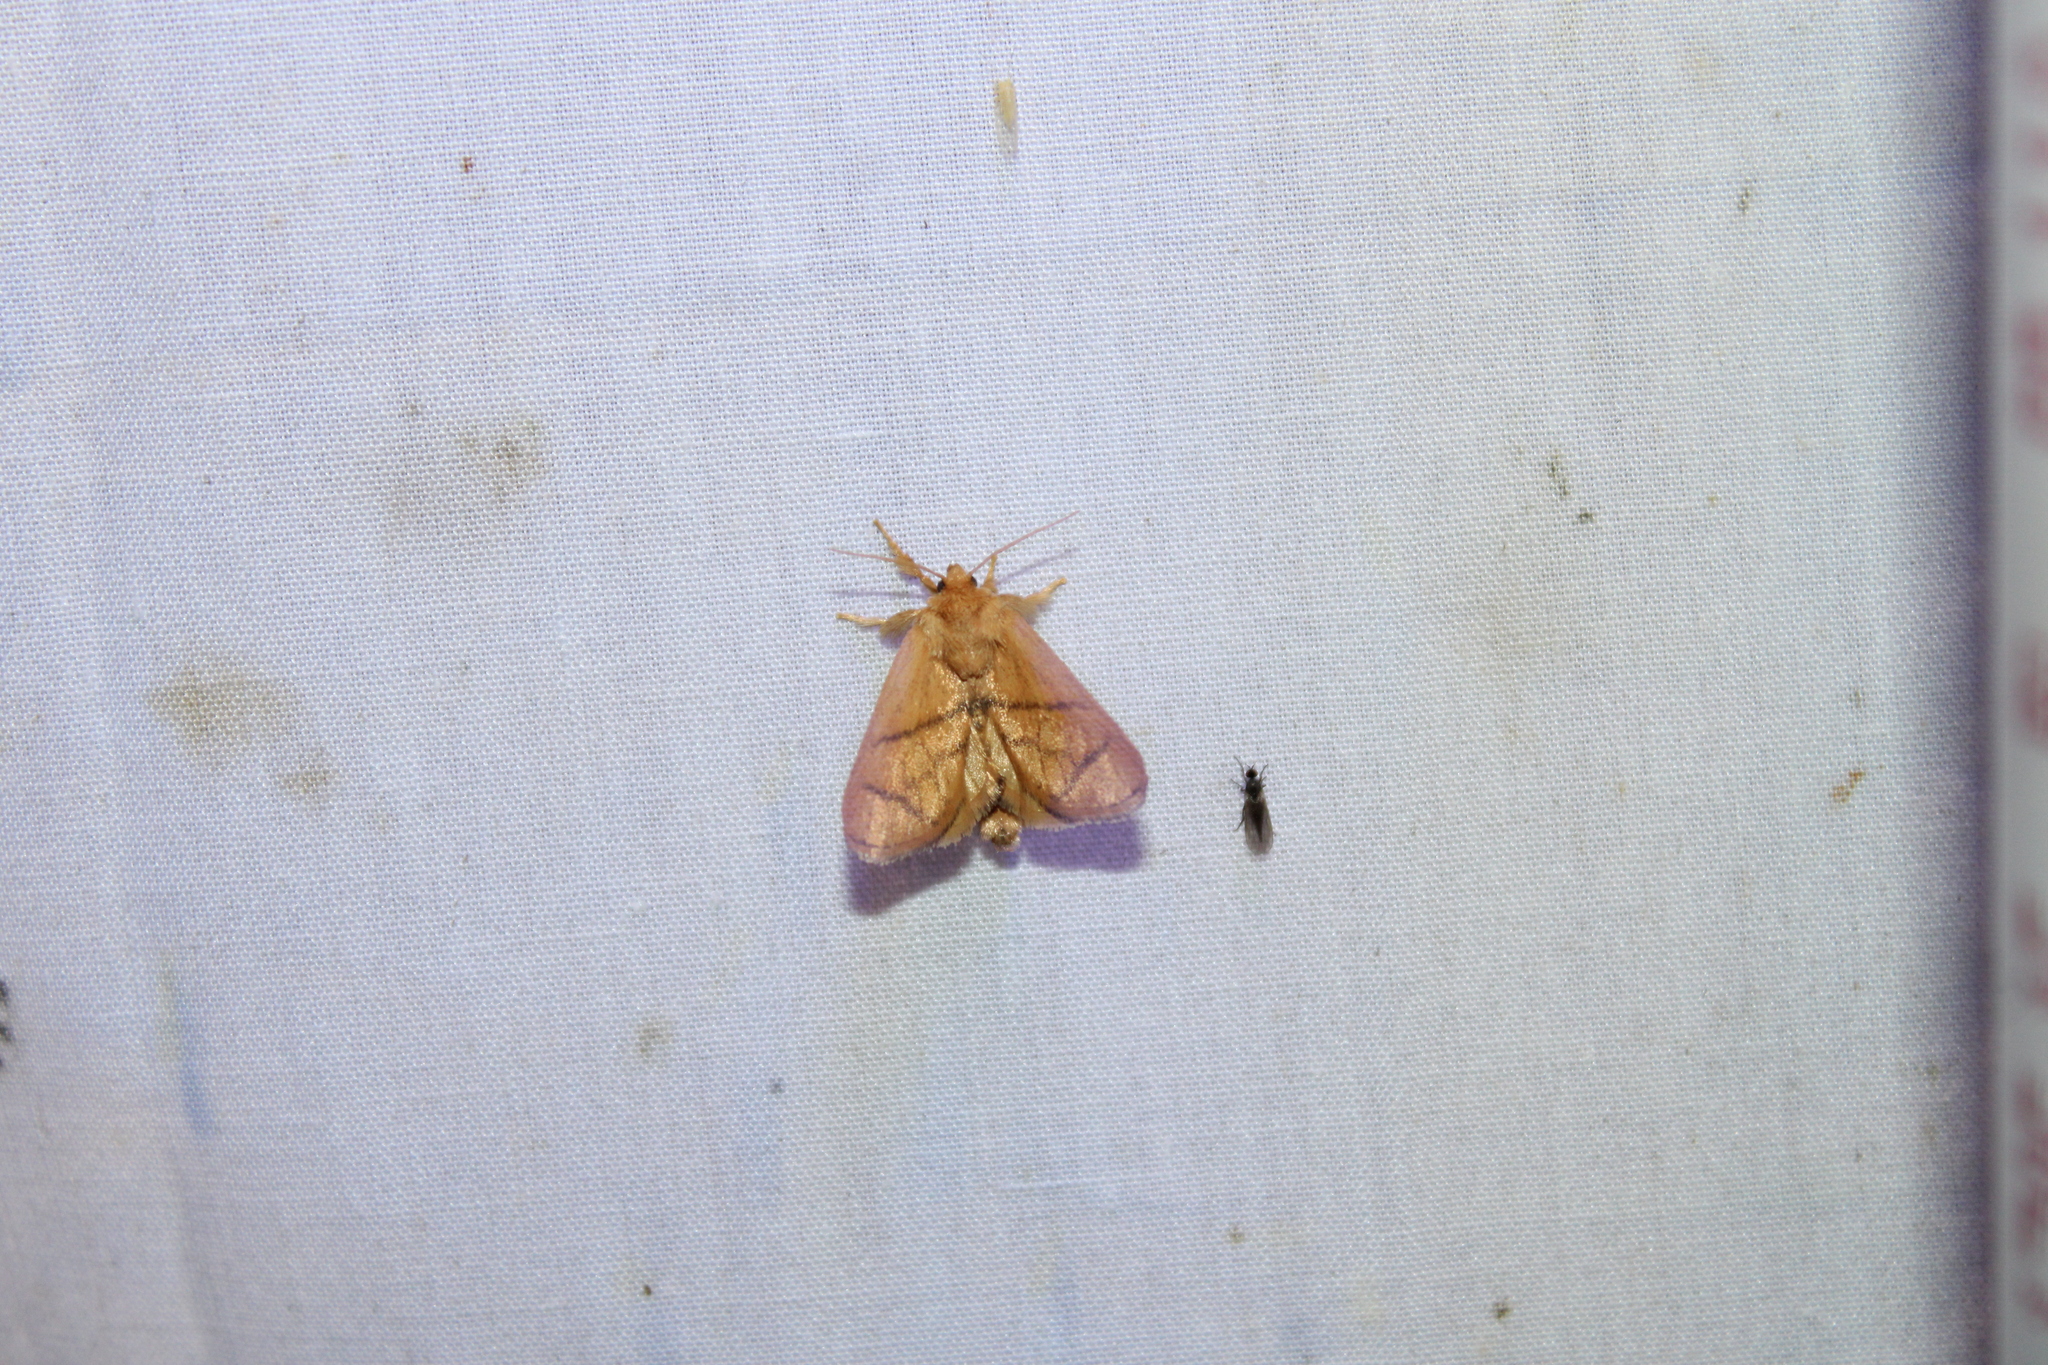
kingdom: Animalia
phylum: Arthropoda
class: Insecta
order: Lepidoptera
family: Limacodidae
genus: Apoda
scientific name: Apoda y-inversa
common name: Yellow-collared slug moth
